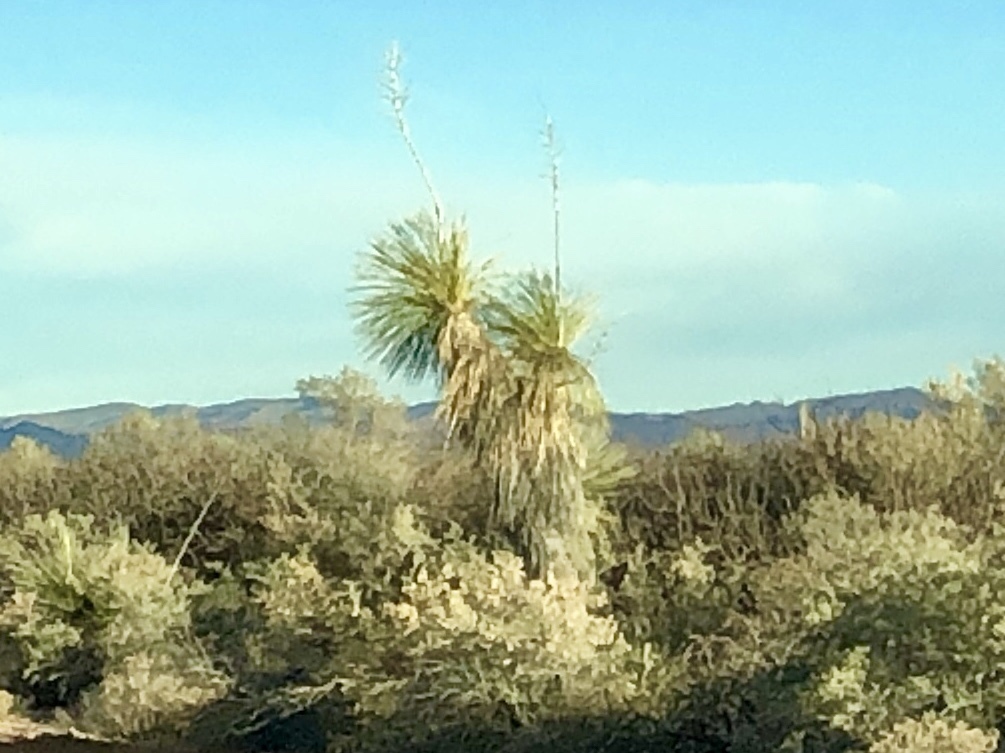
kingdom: Plantae
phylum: Tracheophyta
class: Liliopsida
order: Asparagales
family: Asparagaceae
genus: Yucca
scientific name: Yucca elata
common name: Palmella
